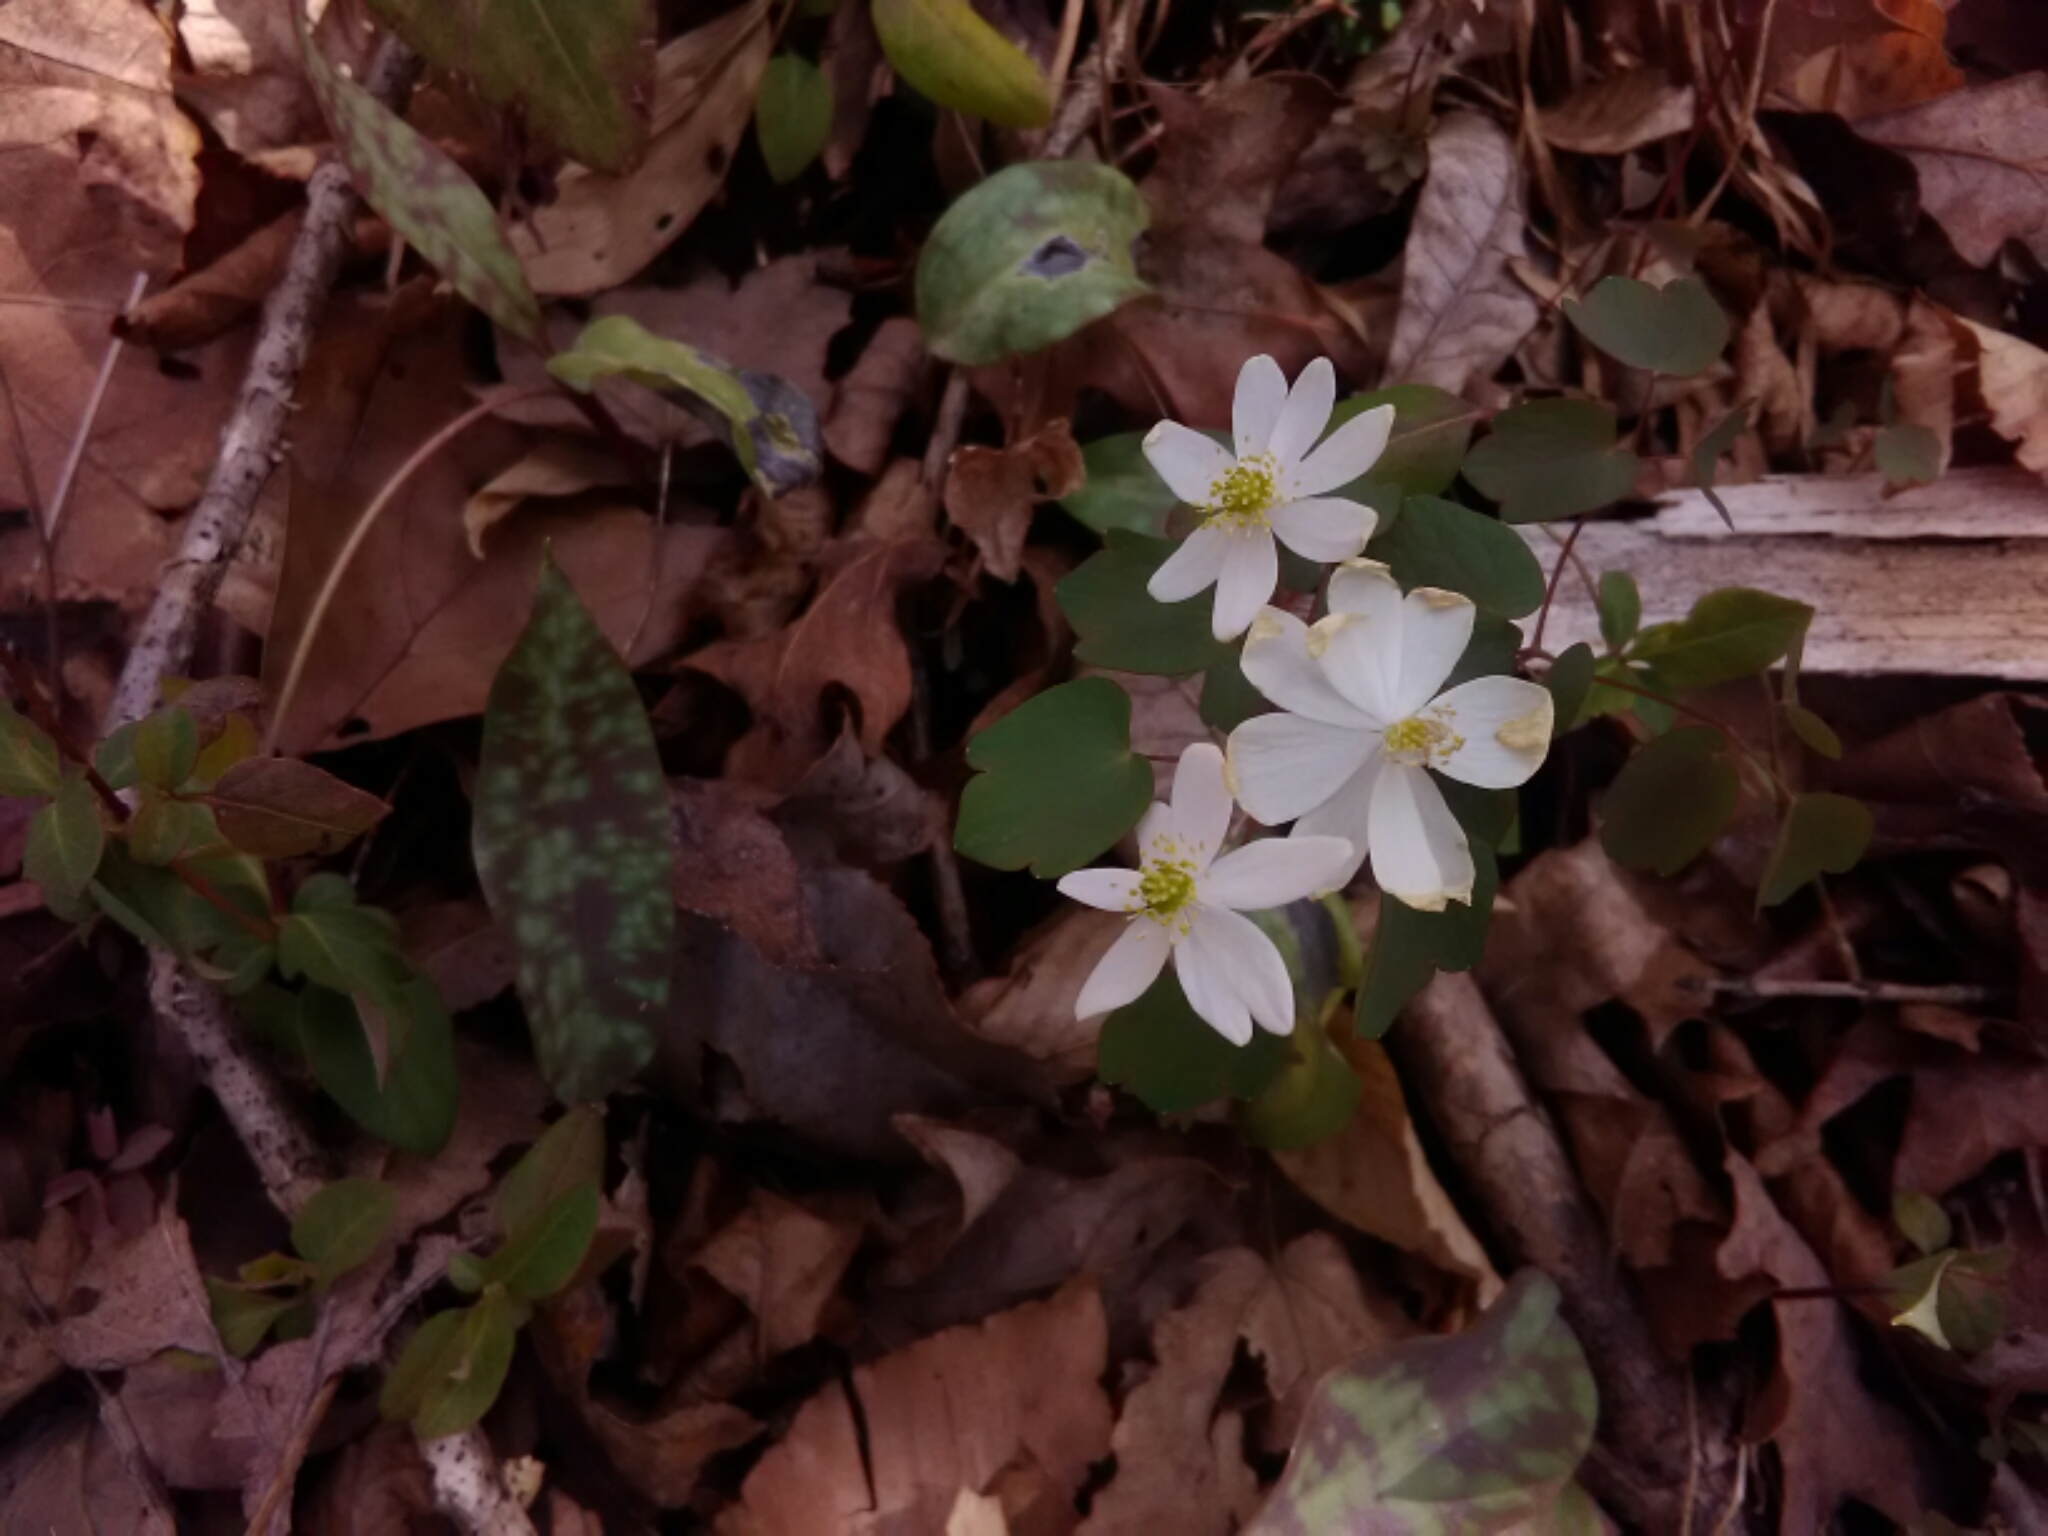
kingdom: Plantae
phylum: Tracheophyta
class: Magnoliopsida
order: Ranunculales
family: Ranunculaceae
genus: Thalictrum
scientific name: Thalictrum thalictroides
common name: Rue-anemone
